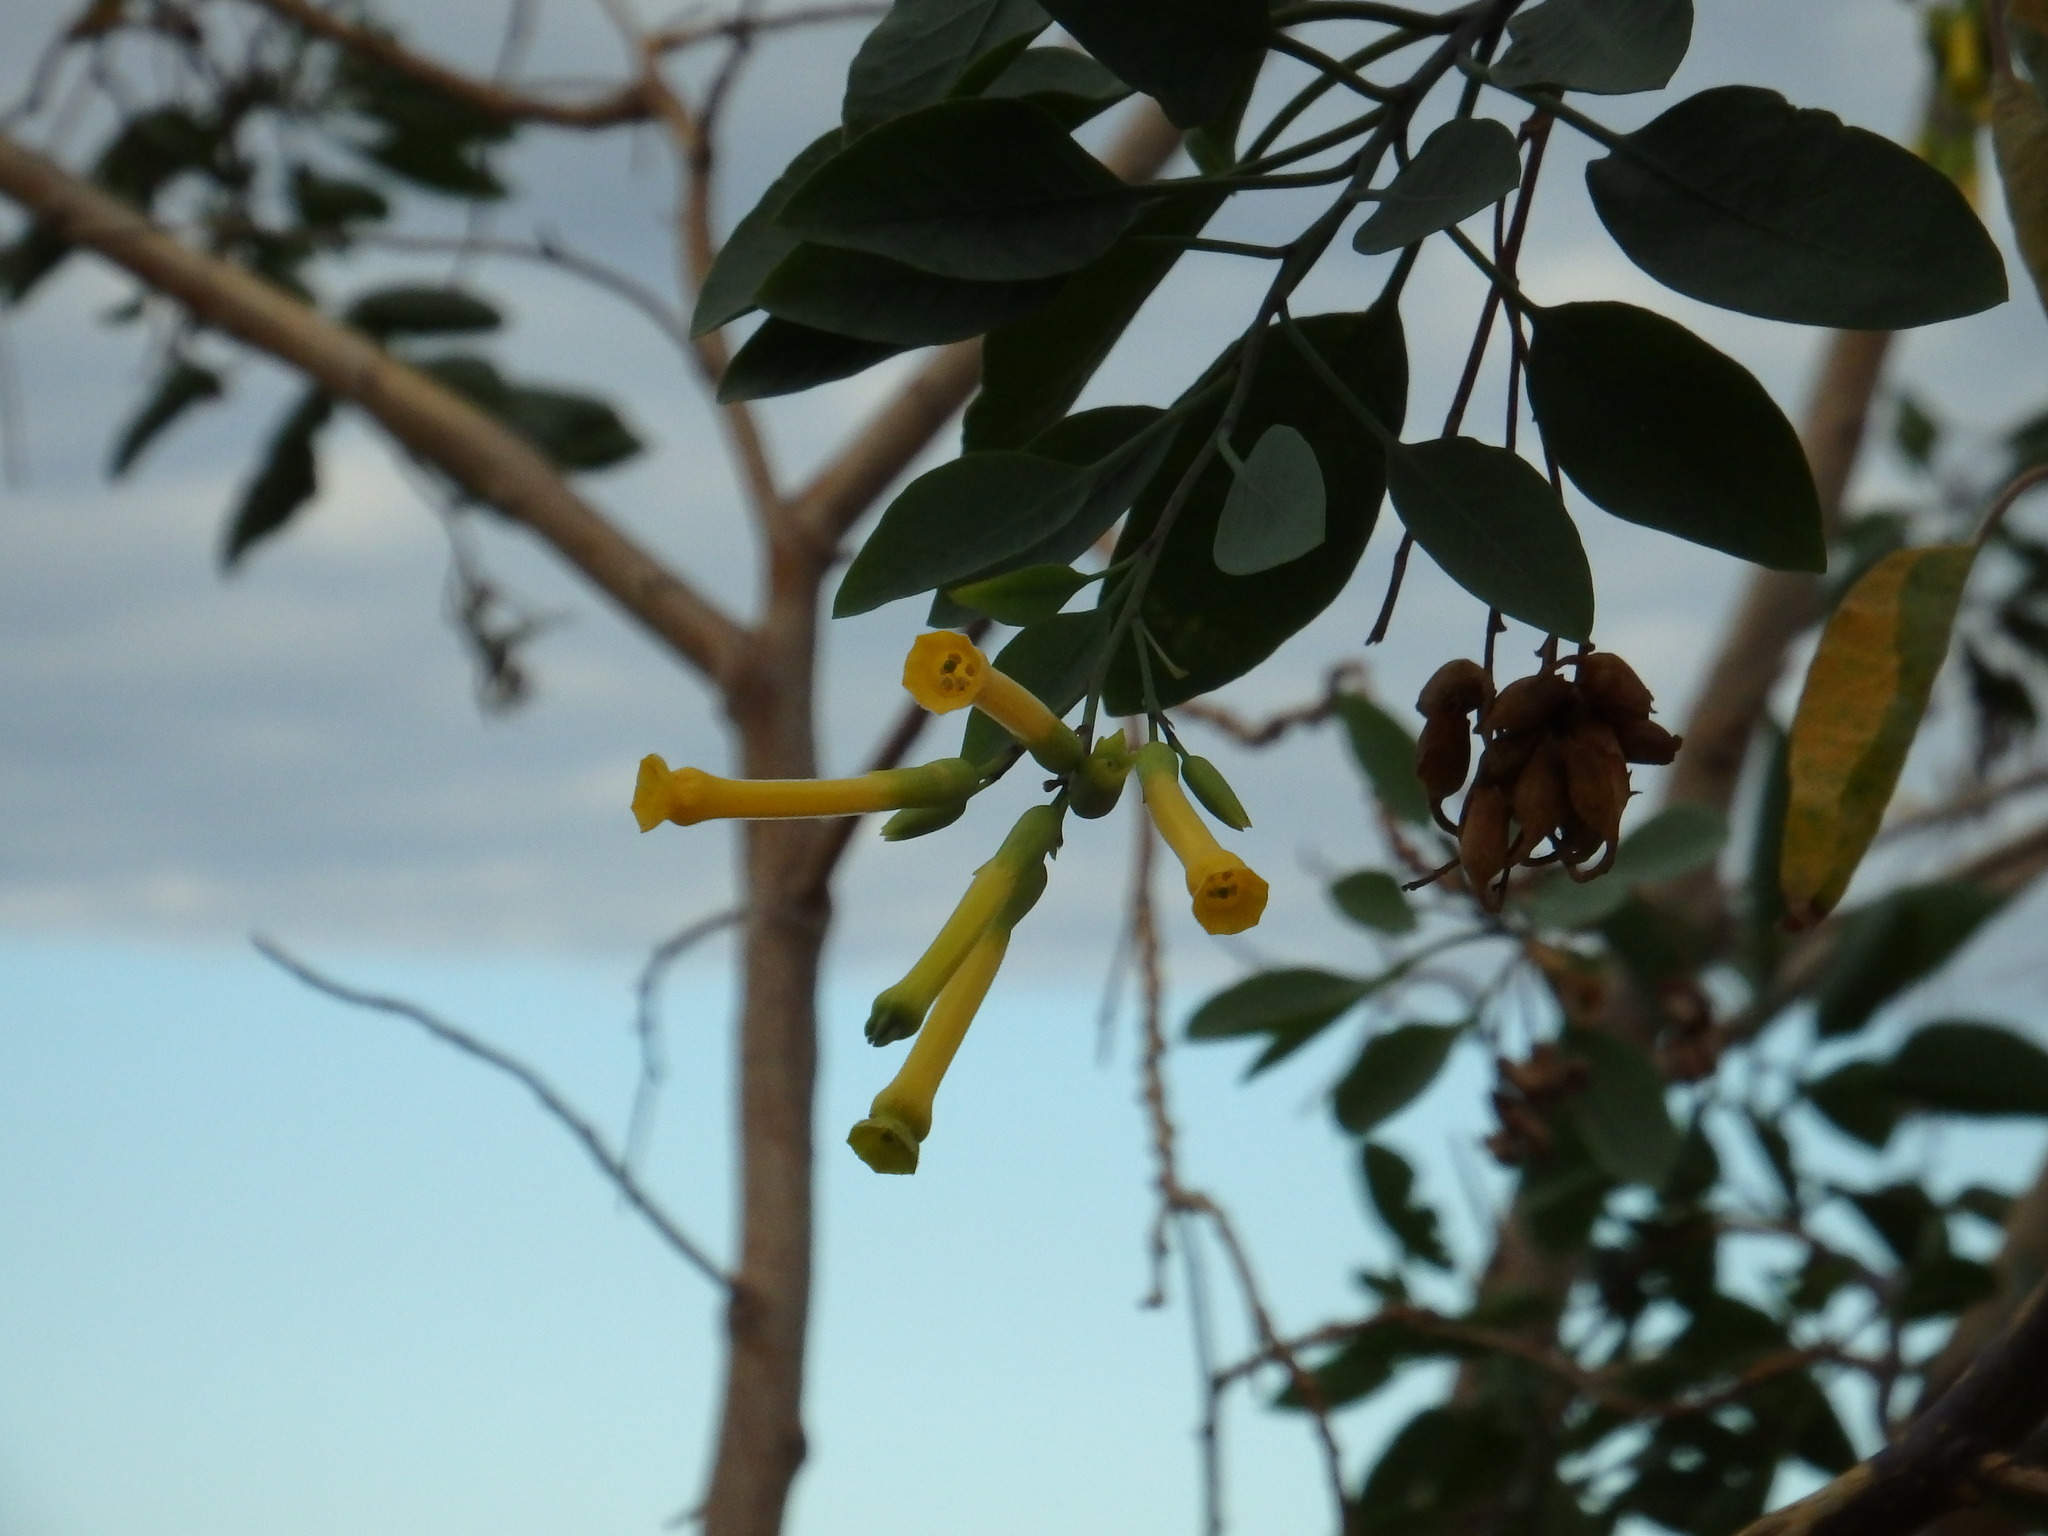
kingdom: Plantae
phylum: Tracheophyta
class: Magnoliopsida
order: Solanales
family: Solanaceae
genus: Nicotiana
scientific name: Nicotiana glauca
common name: Tree tobacco
